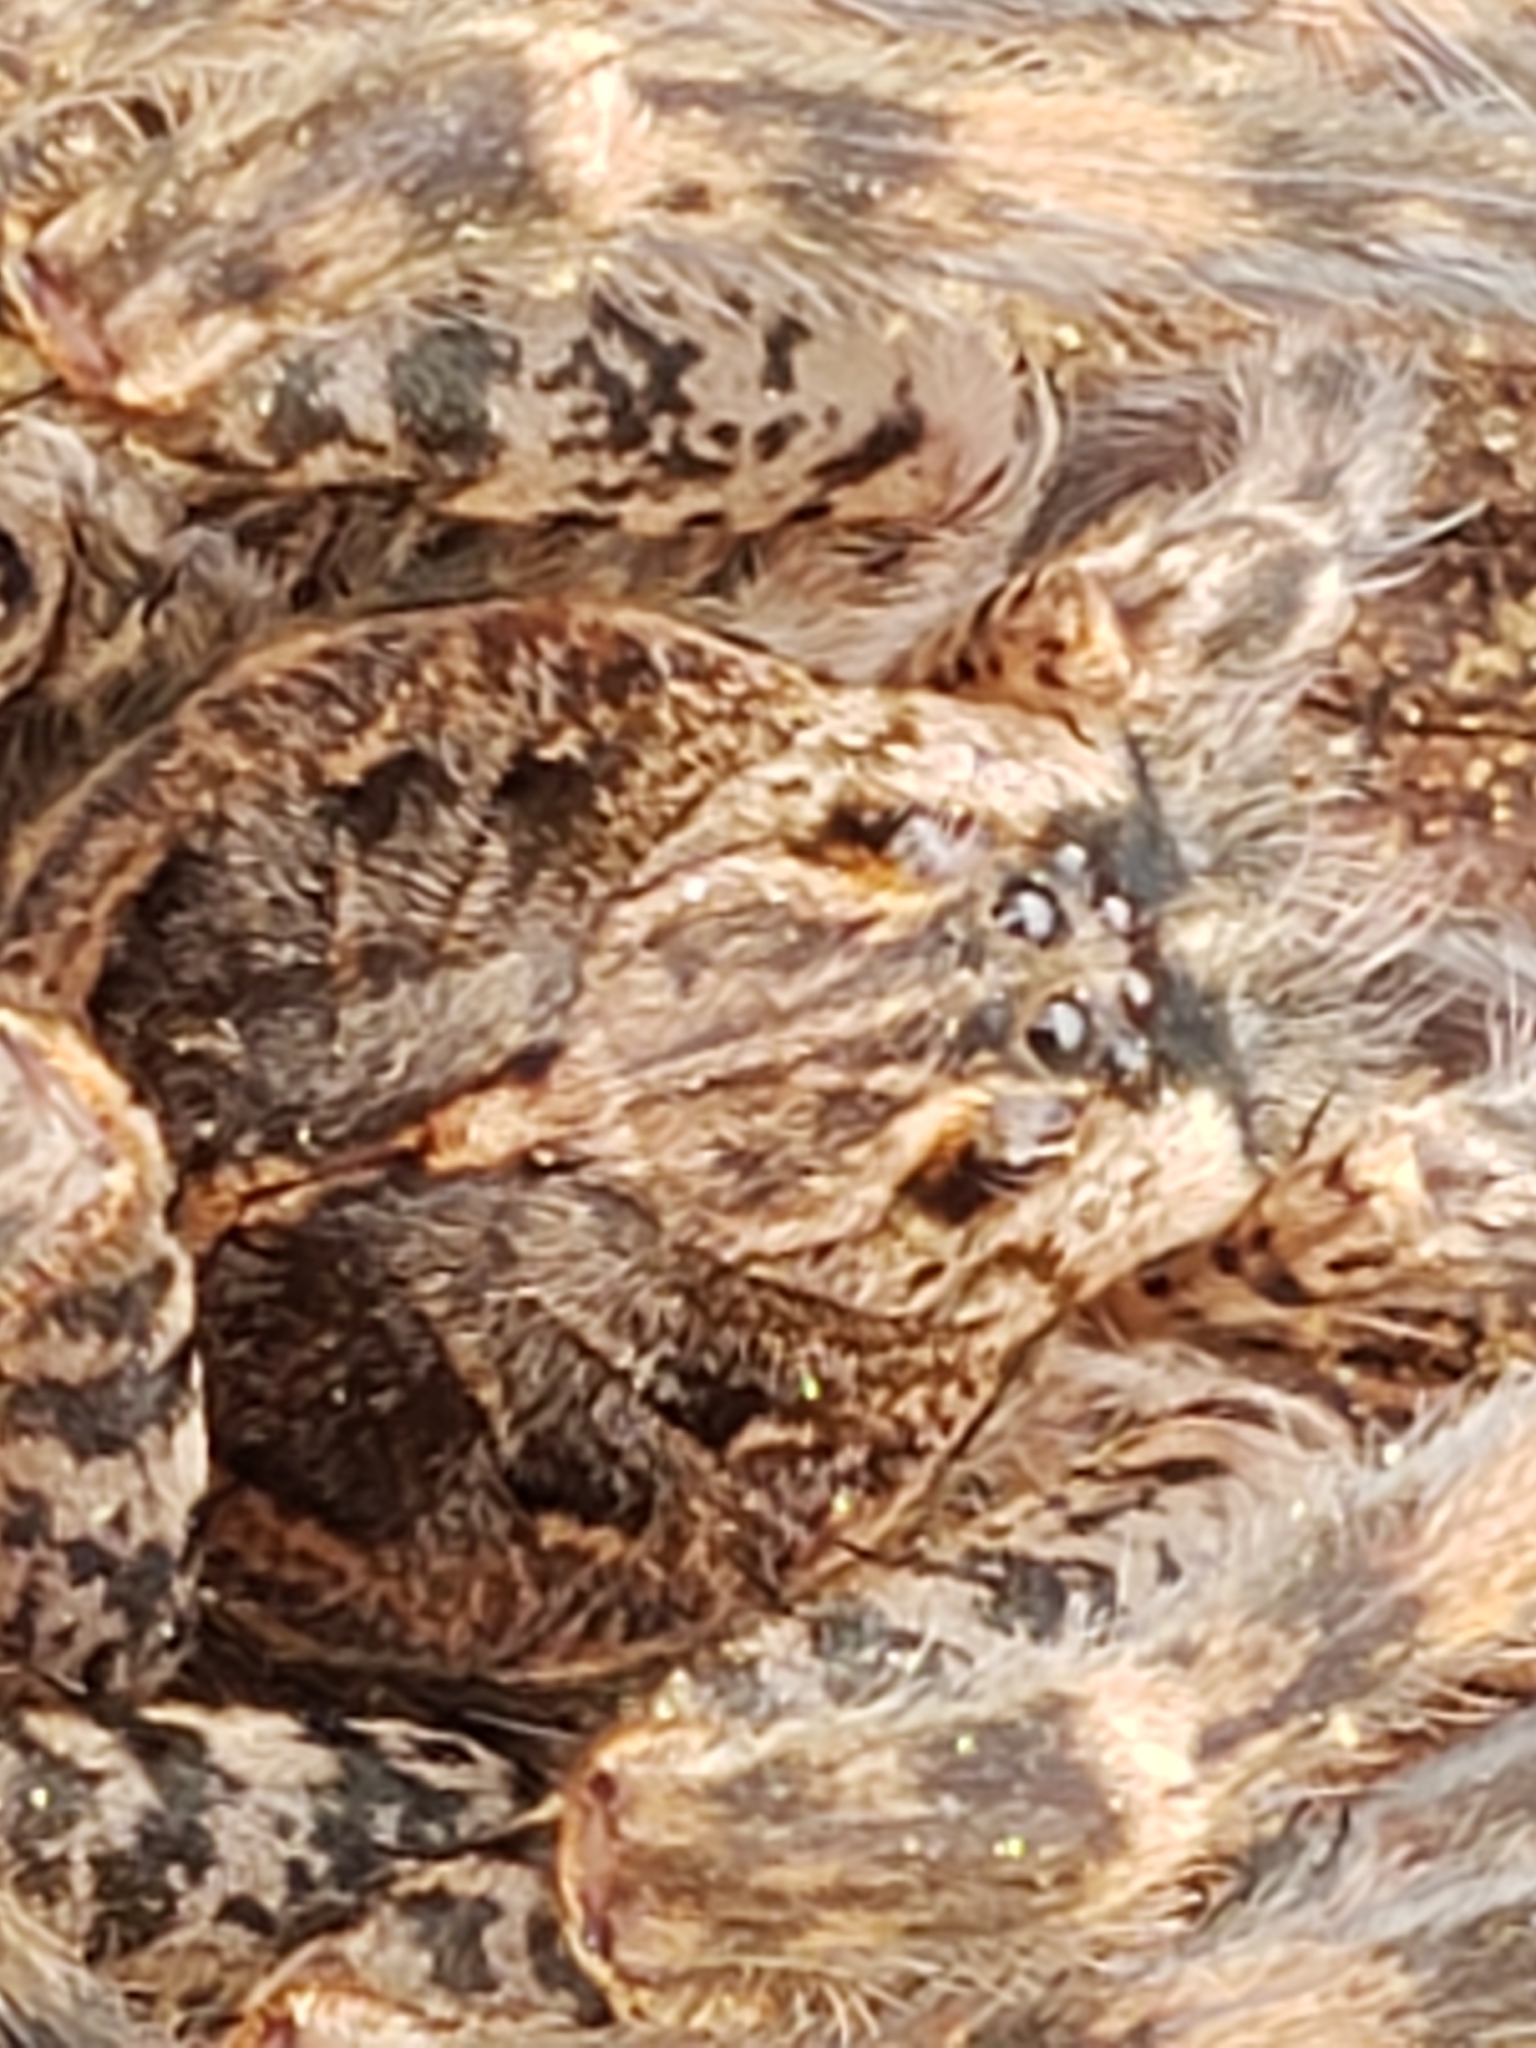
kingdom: Animalia
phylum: Arthropoda
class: Arachnida
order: Araneae
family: Pisauridae
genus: Dolomedes
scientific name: Dolomedes tenebrosus
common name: Dark fishing spider
